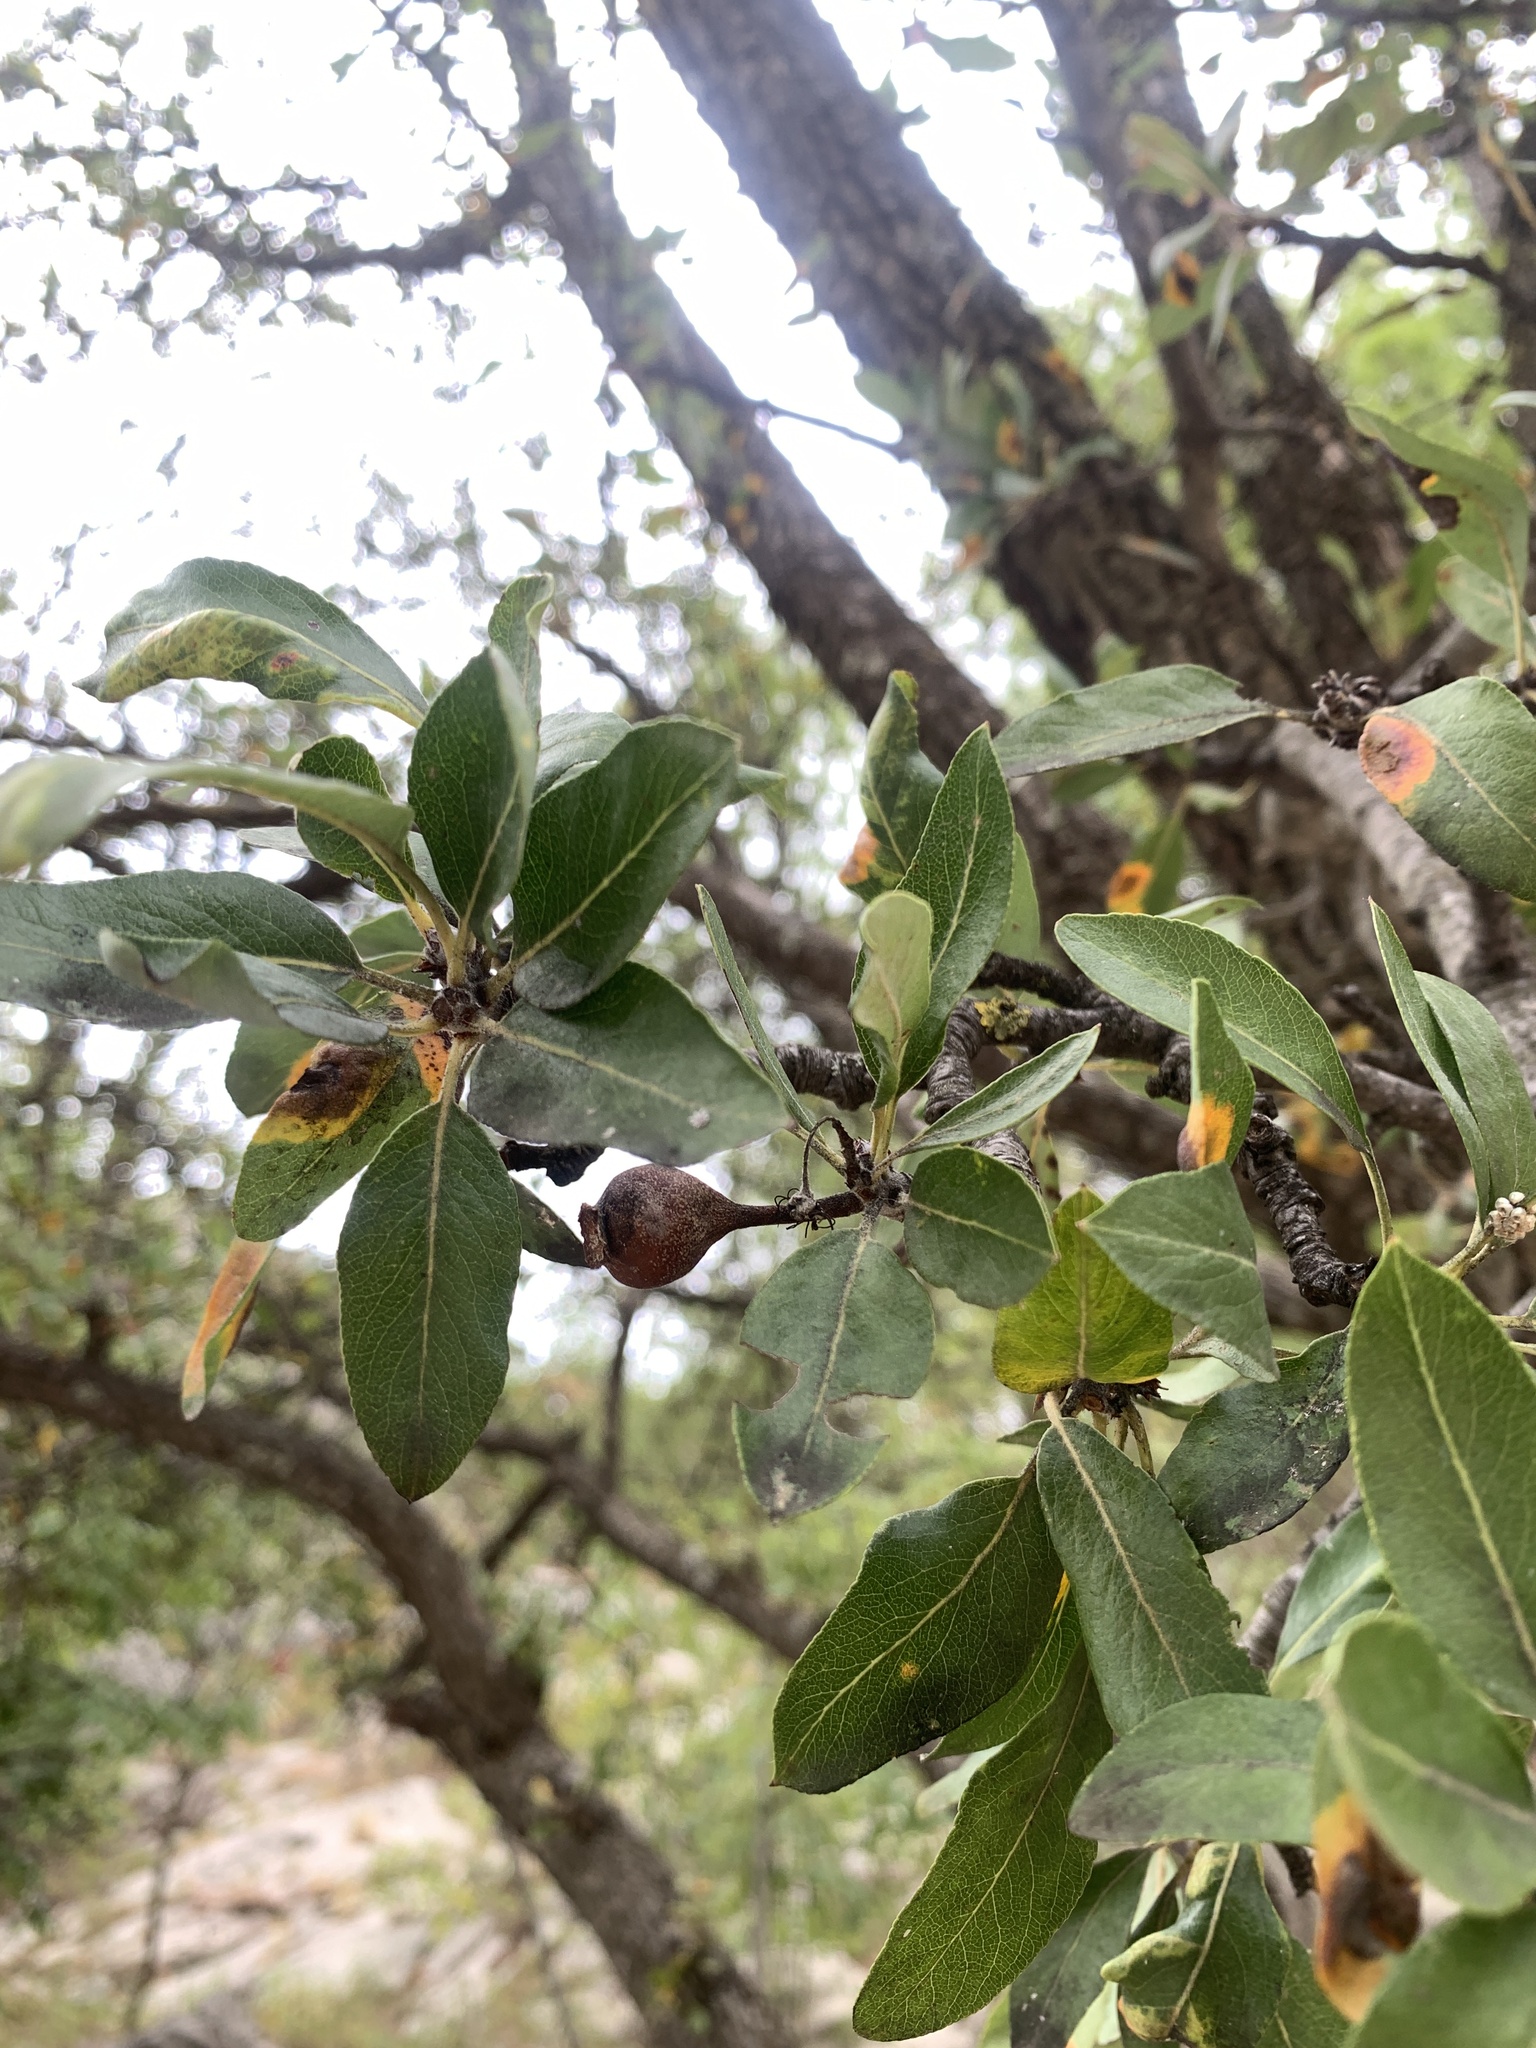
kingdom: Plantae
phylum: Tracheophyta
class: Magnoliopsida
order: Rosales
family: Rosaceae
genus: Pyrus
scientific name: Pyrus spinosa
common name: Almond-leaf pear
